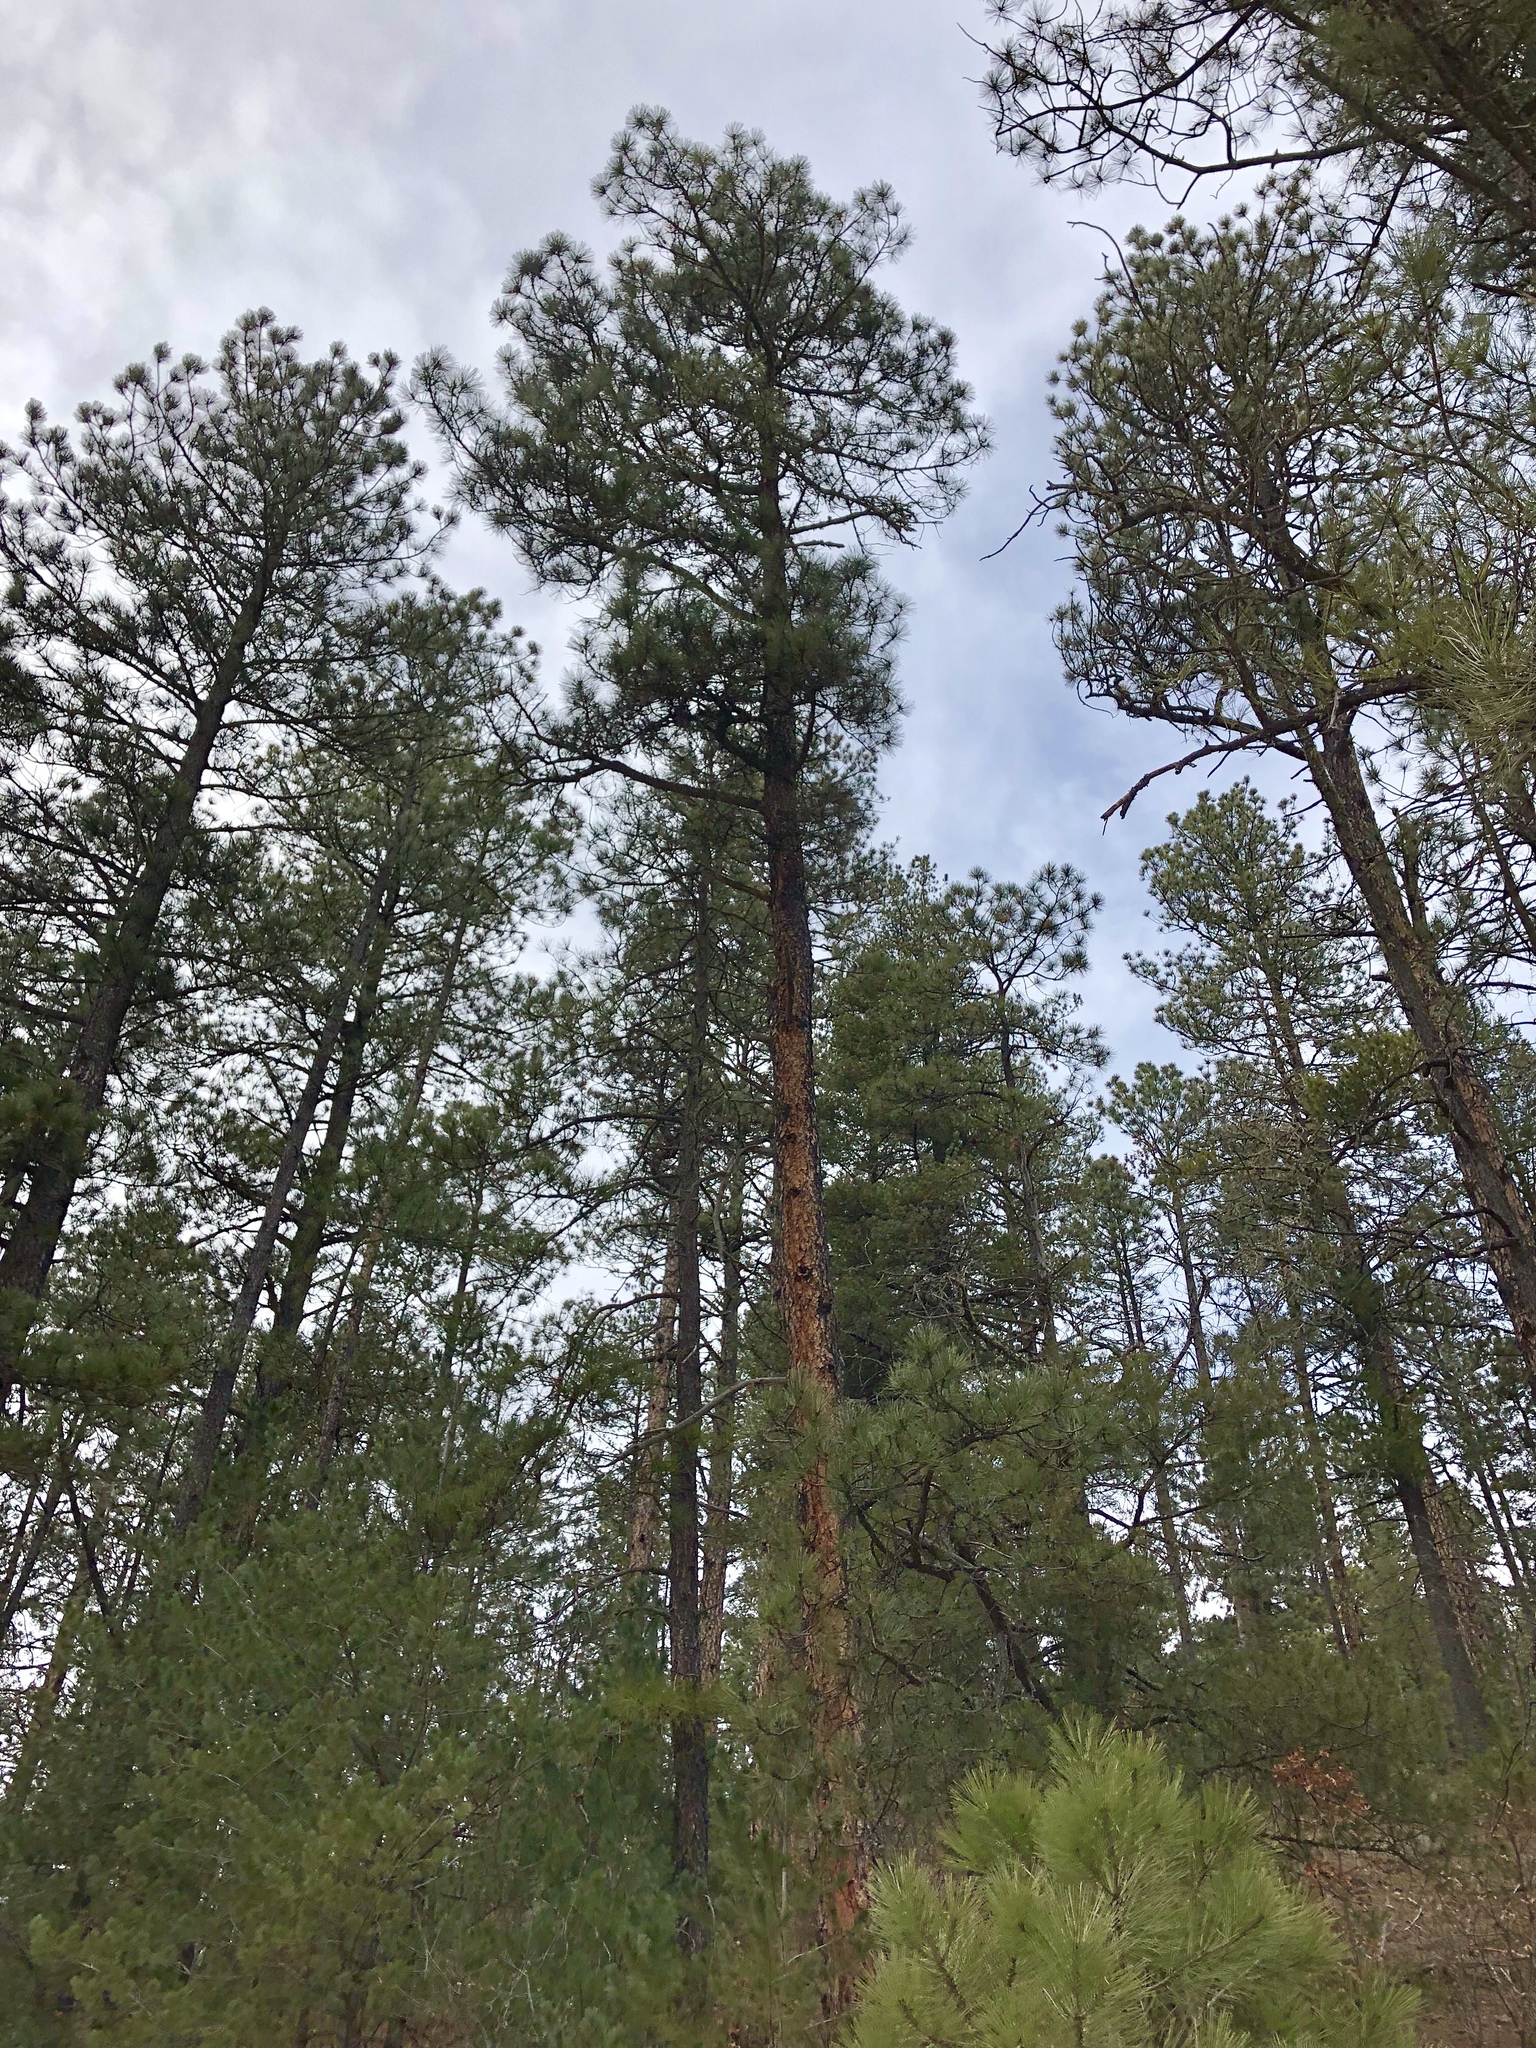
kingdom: Plantae
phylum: Tracheophyta
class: Pinopsida
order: Pinales
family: Pinaceae
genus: Pinus
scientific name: Pinus ponderosa
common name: Western yellow-pine
